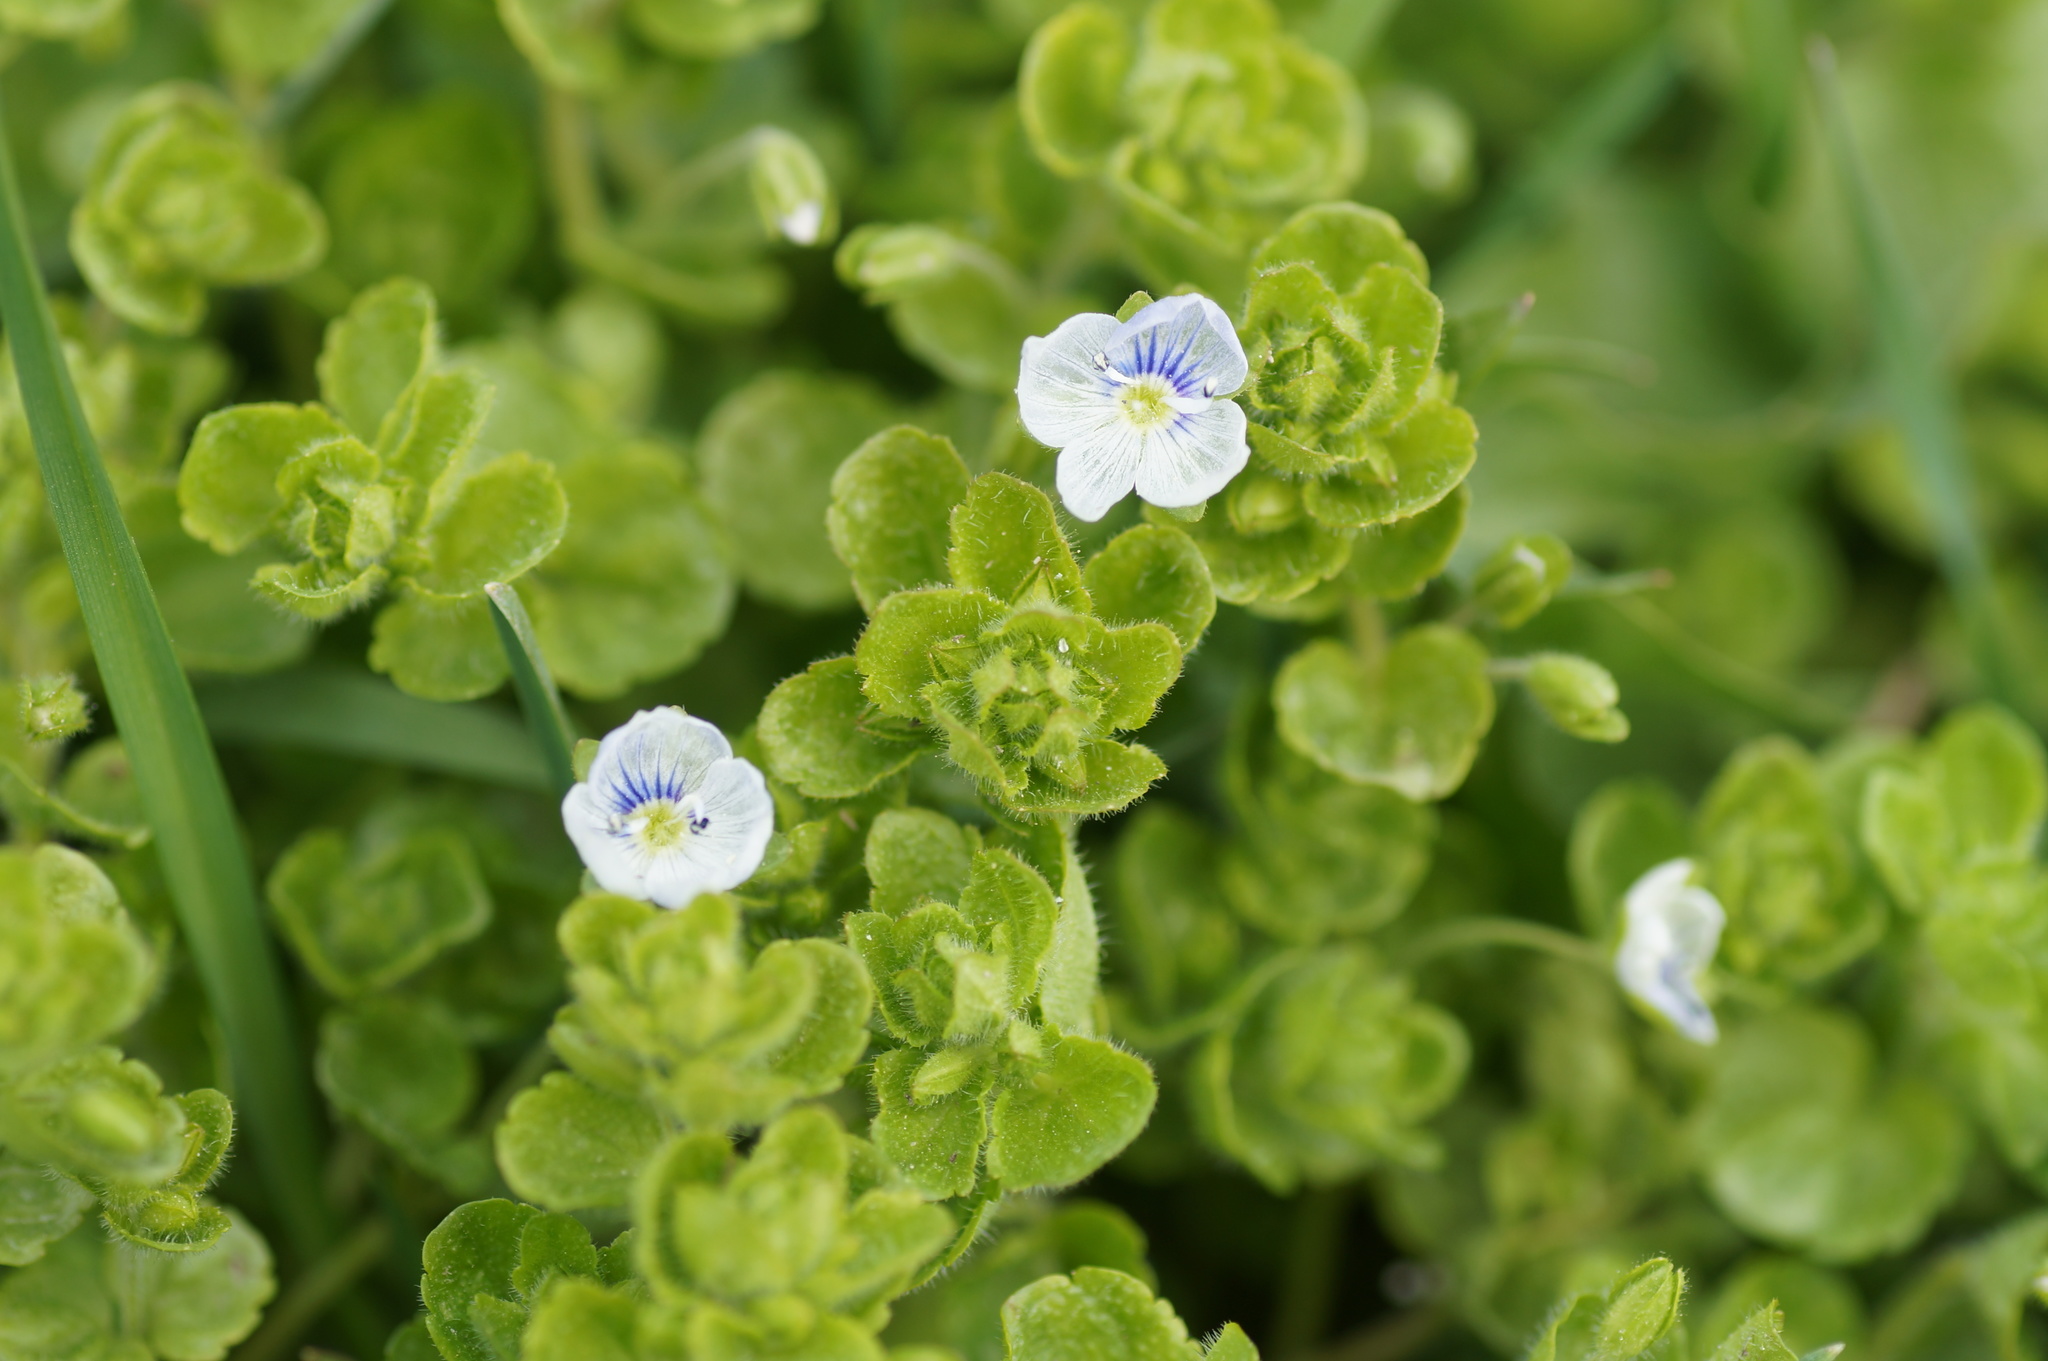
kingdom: Plantae
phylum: Tracheophyta
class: Magnoliopsida
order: Lamiales
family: Plantaginaceae
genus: Veronica
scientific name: Veronica filiformis
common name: Slender speedwell
